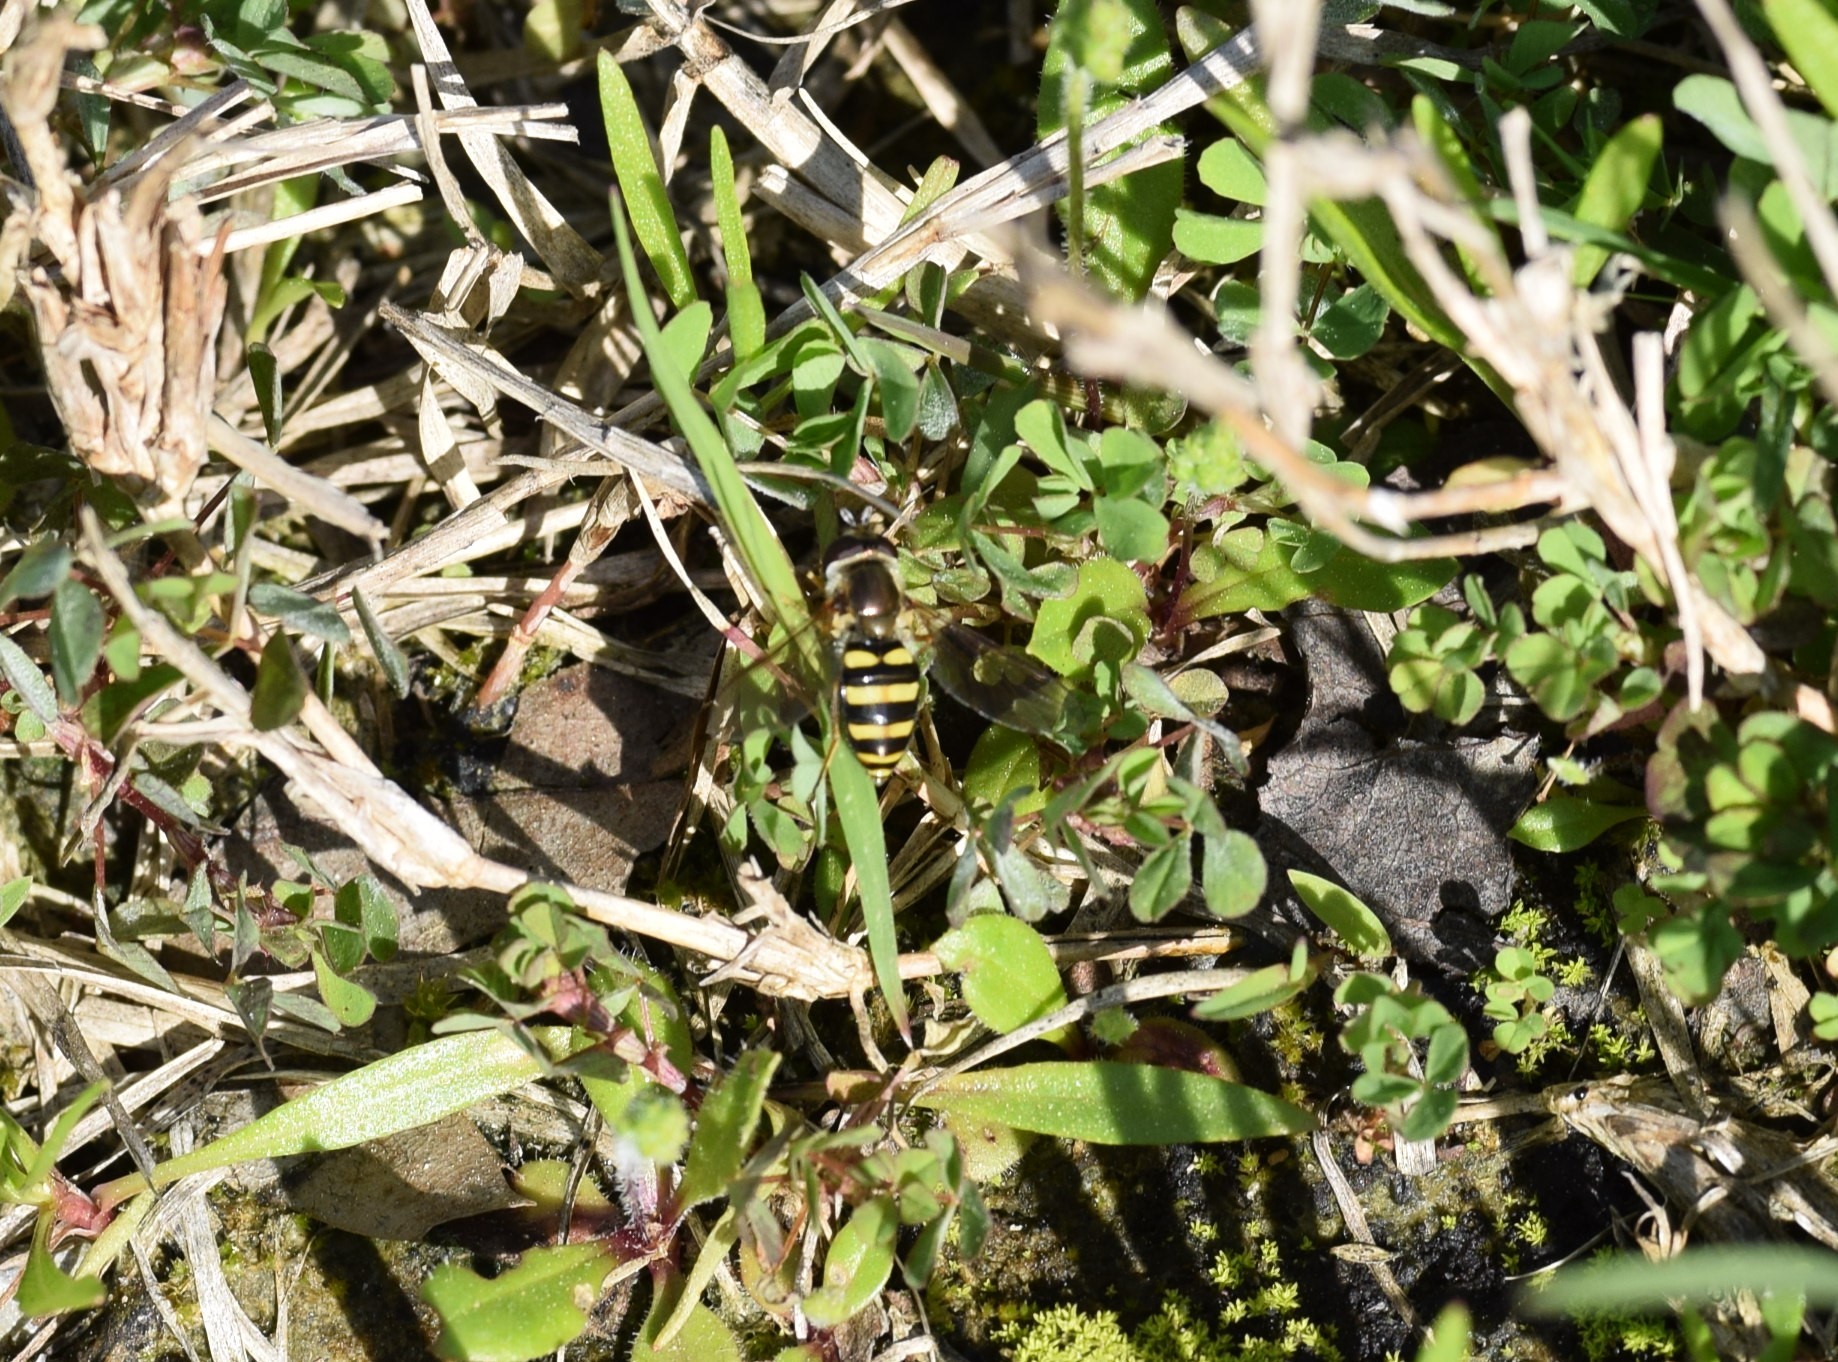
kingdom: Animalia
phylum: Arthropoda
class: Insecta
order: Diptera
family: Syrphidae
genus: Eupeodes
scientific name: Eupeodes
